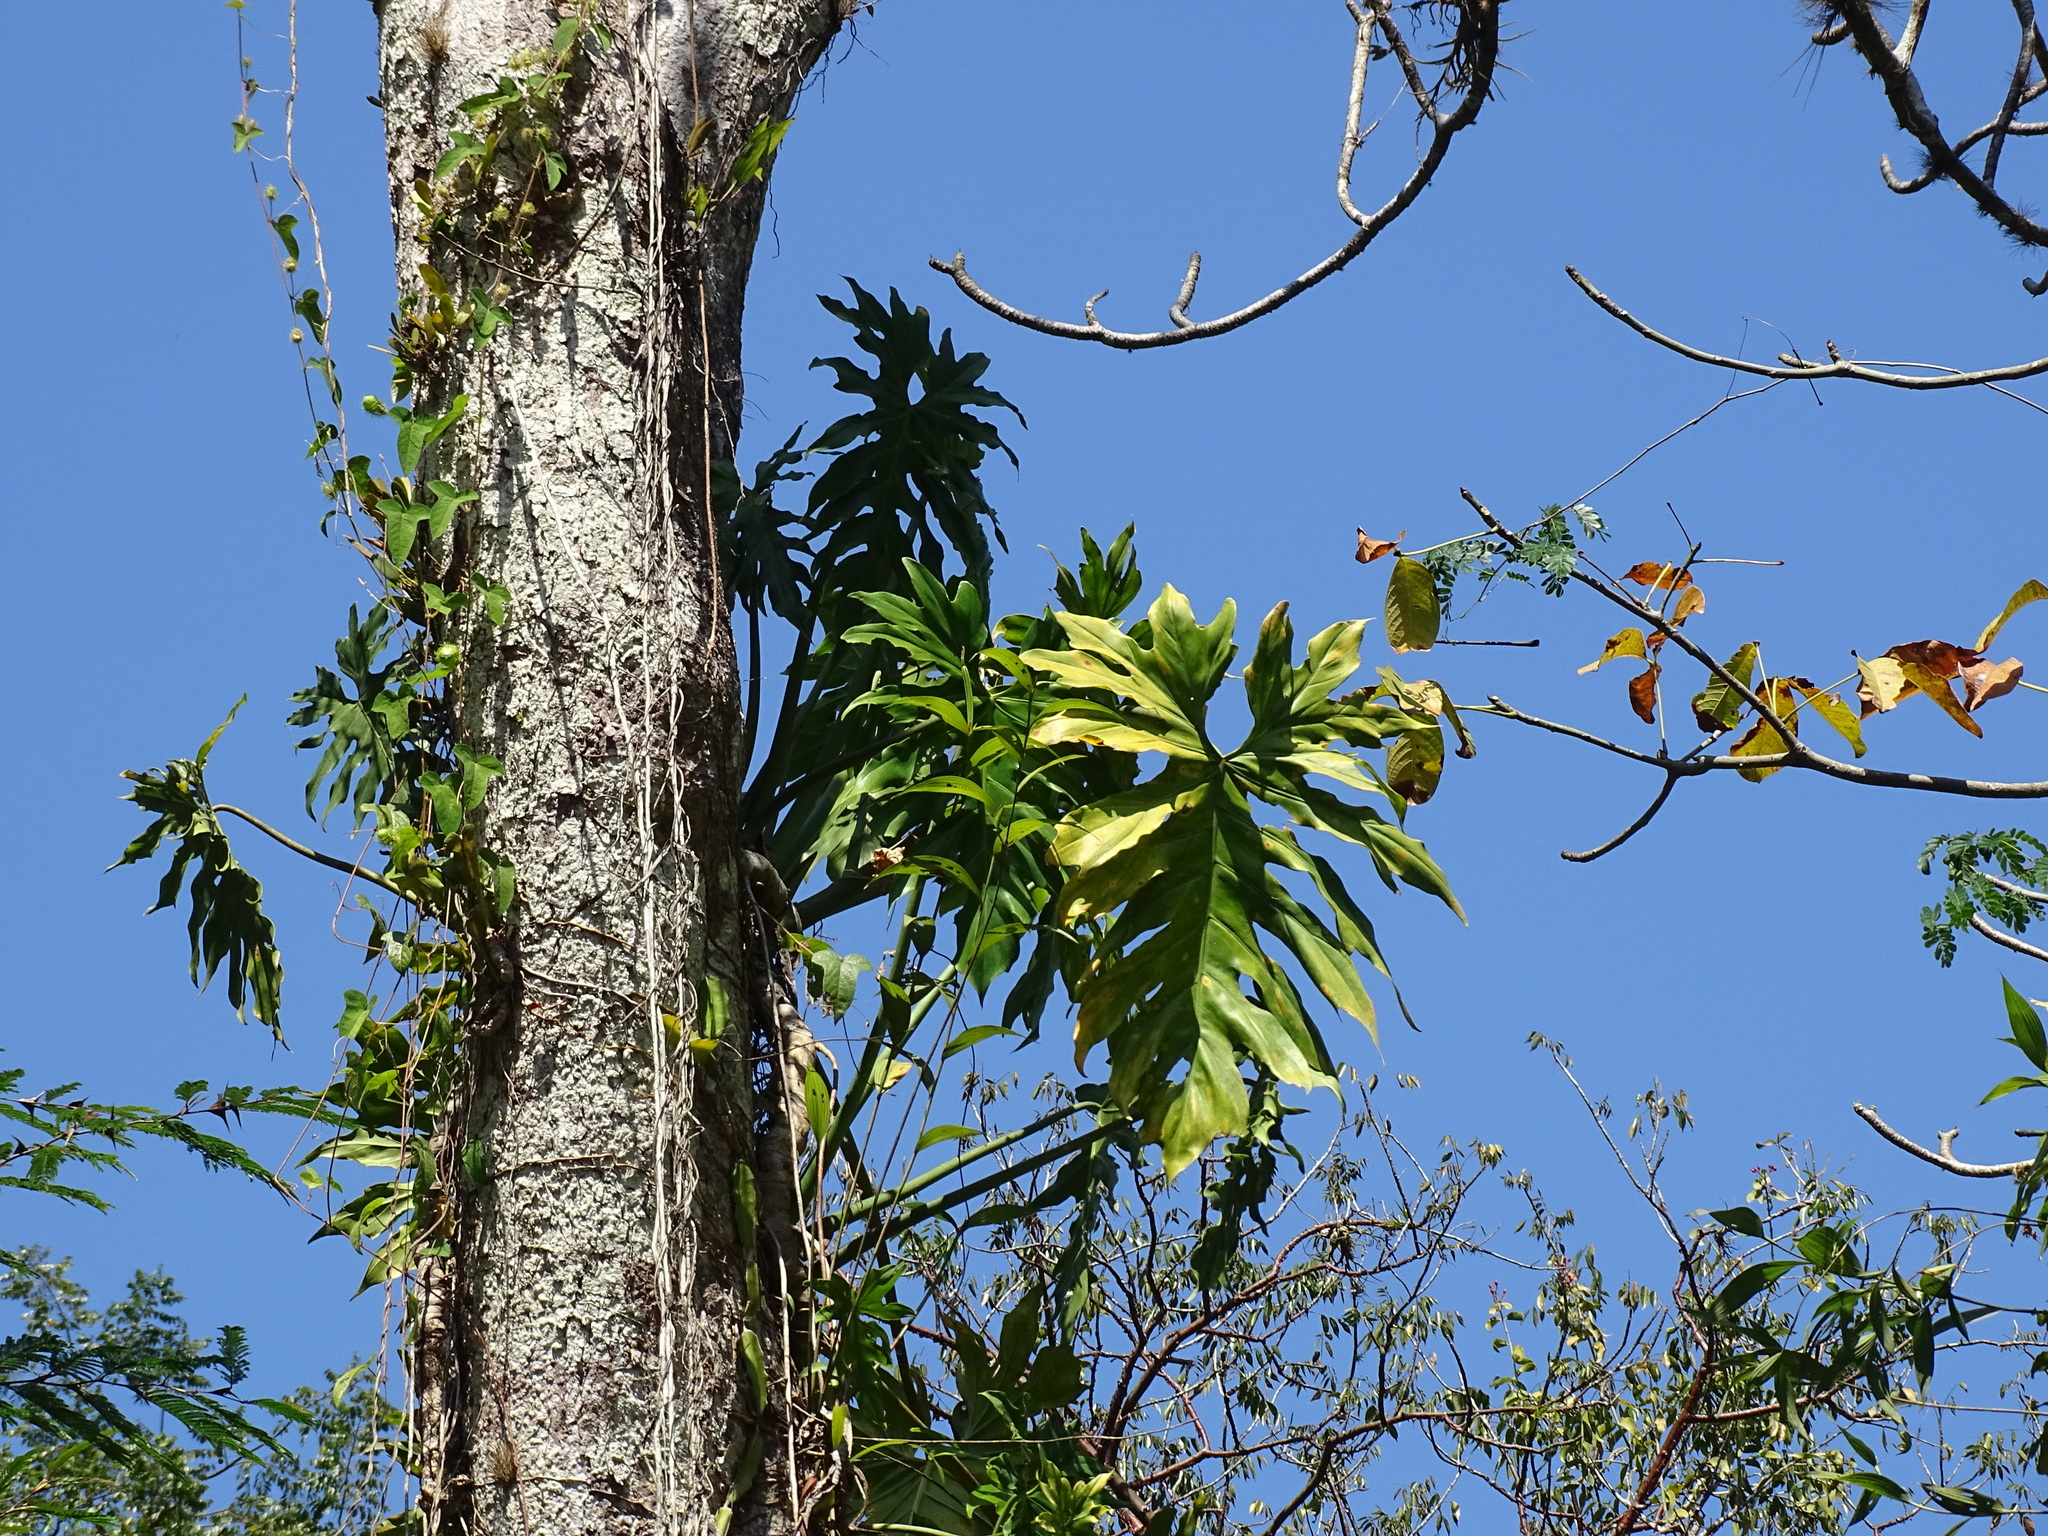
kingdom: Plantae
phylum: Tracheophyta
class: Liliopsida
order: Alismatales
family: Araceae
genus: Philodendron
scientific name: Philodendron radiatum
